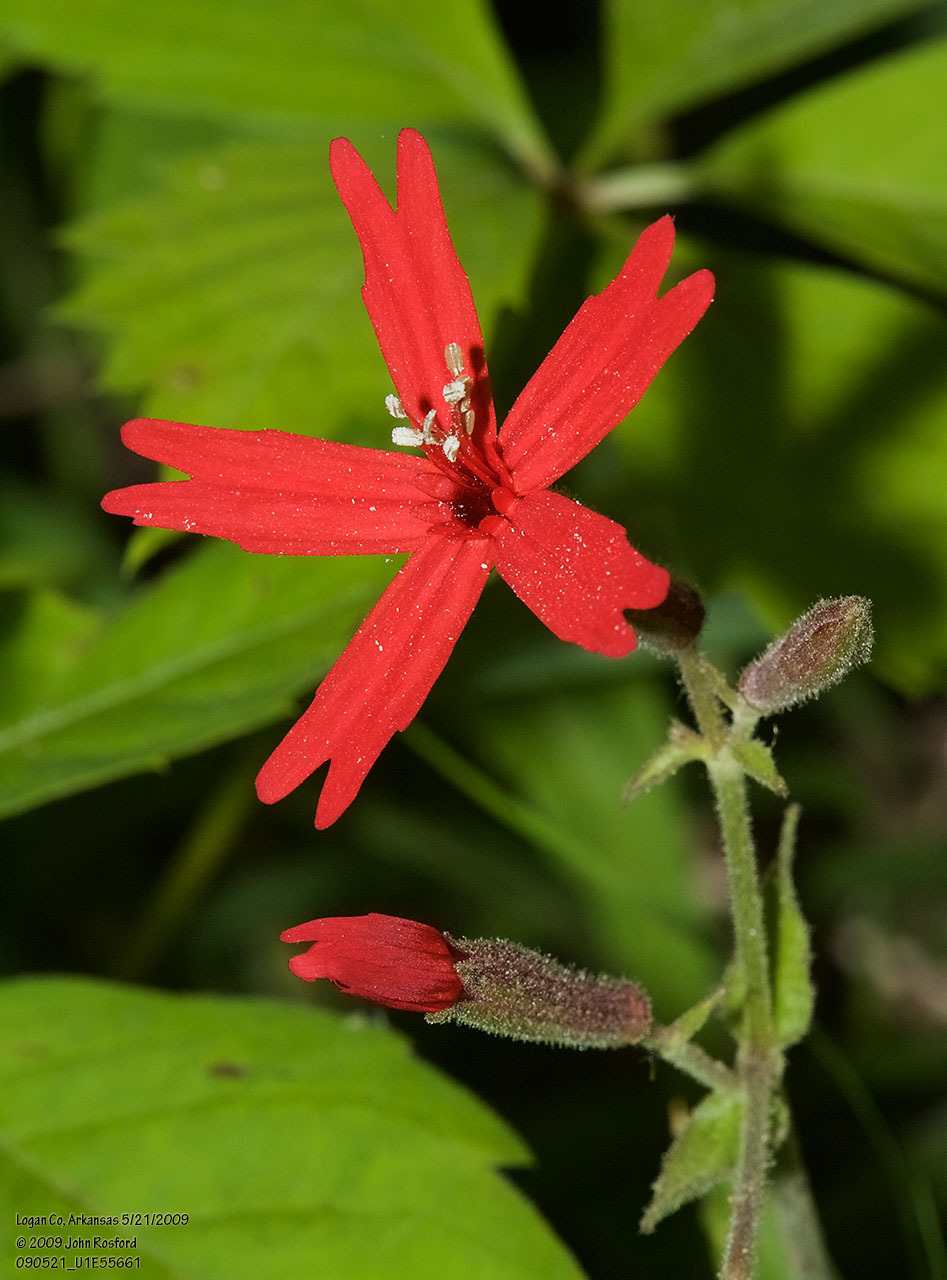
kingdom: Plantae
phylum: Tracheophyta
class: Magnoliopsida
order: Caryophyllales
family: Caryophyllaceae
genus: Silene
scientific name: Silene virginica
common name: Fire-pink
